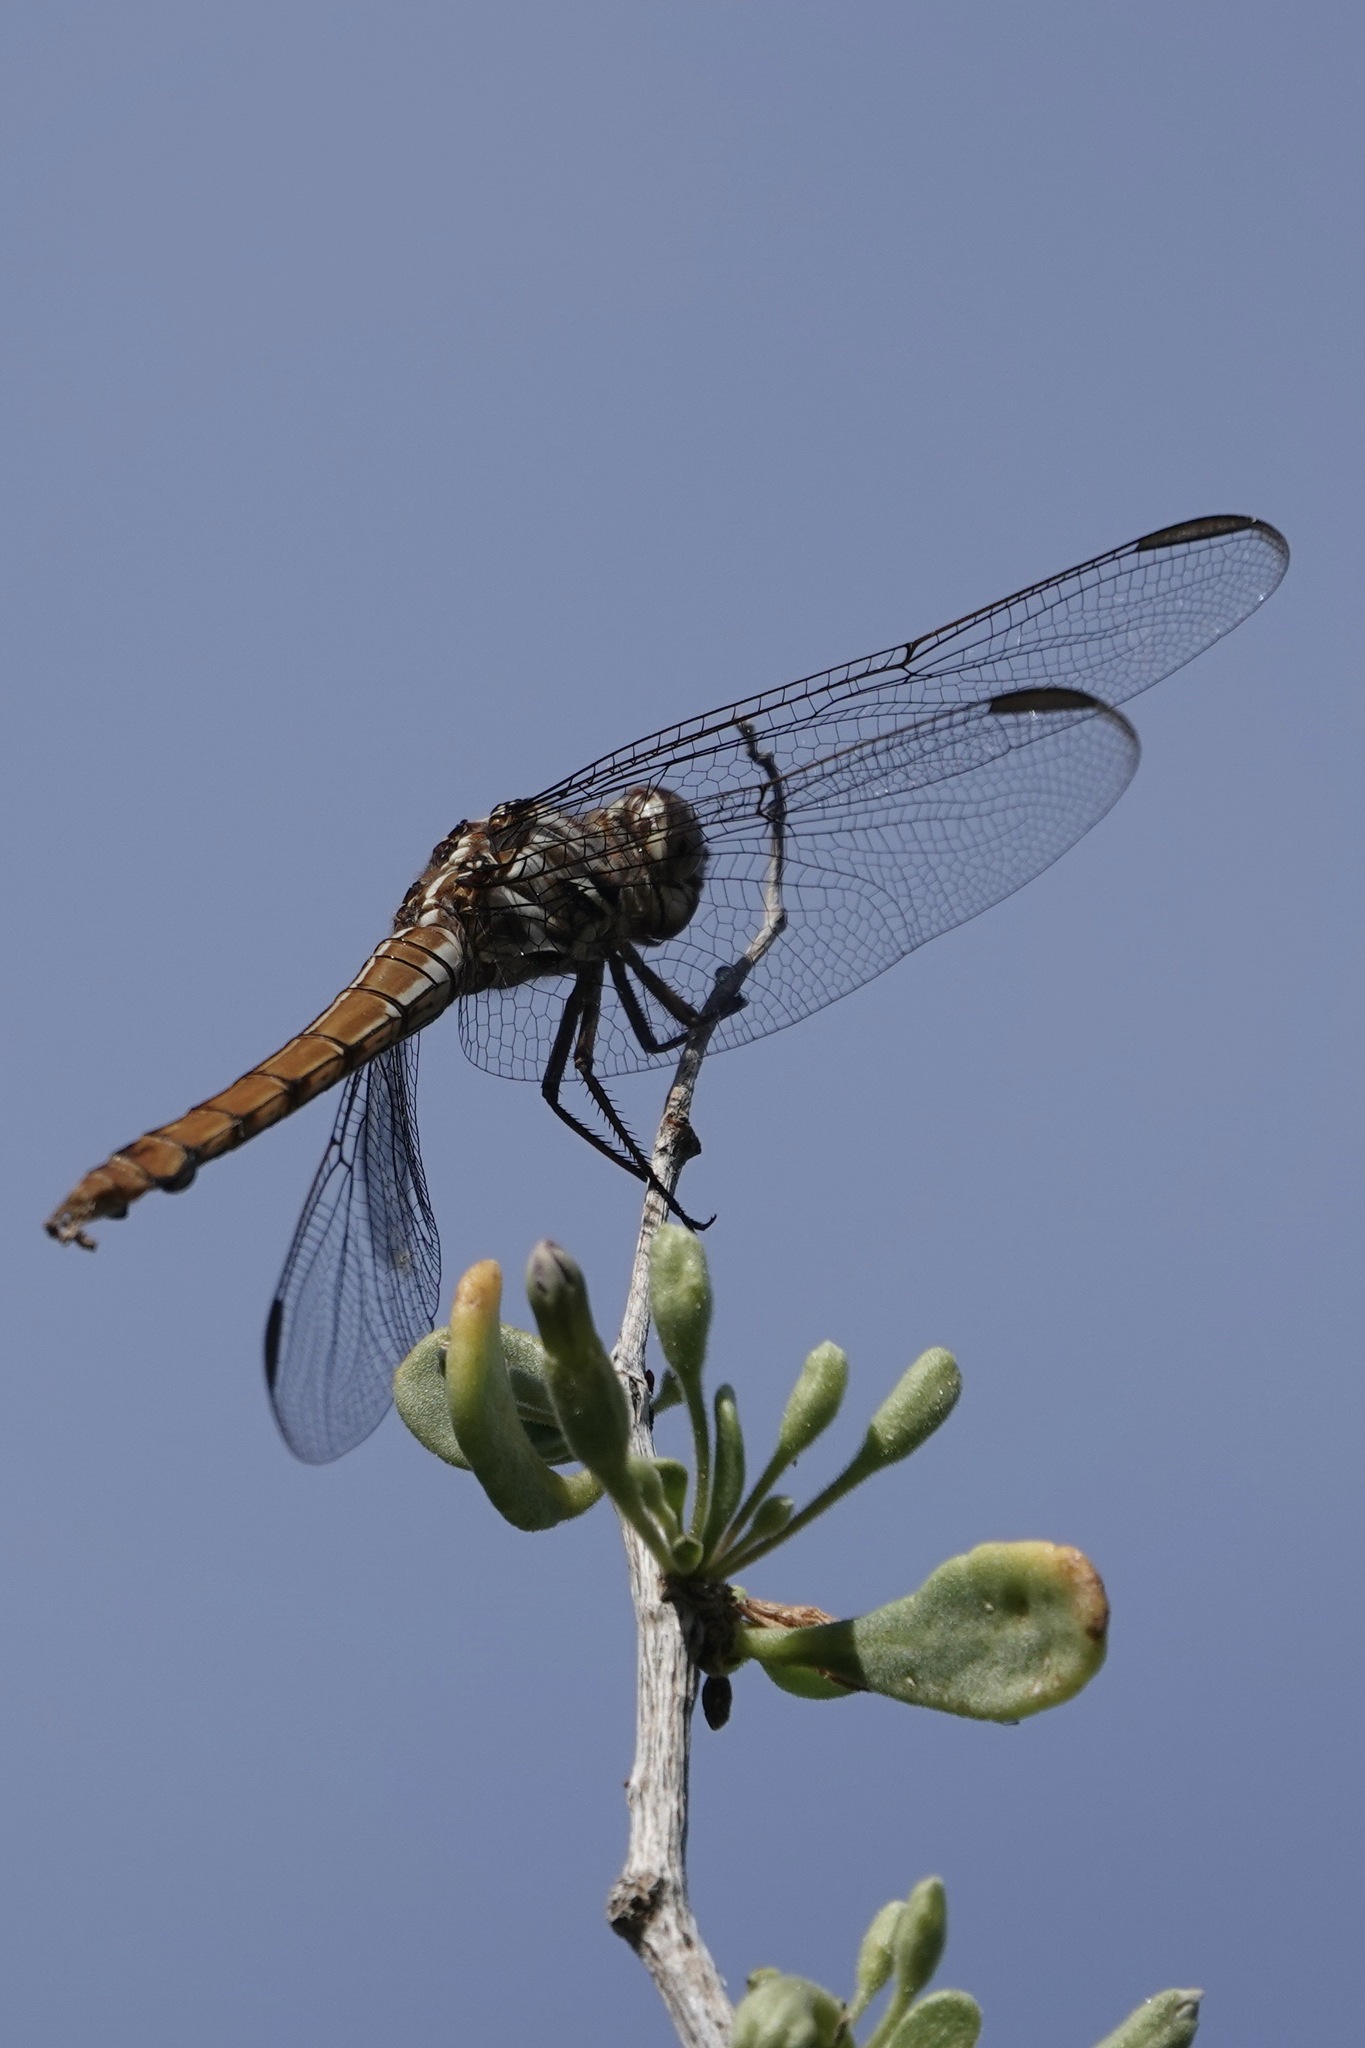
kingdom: Animalia
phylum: Arthropoda
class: Insecta
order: Odonata
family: Libellulidae
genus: Orthemis
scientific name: Orthemis ferruginea
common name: Roseate skimmer
